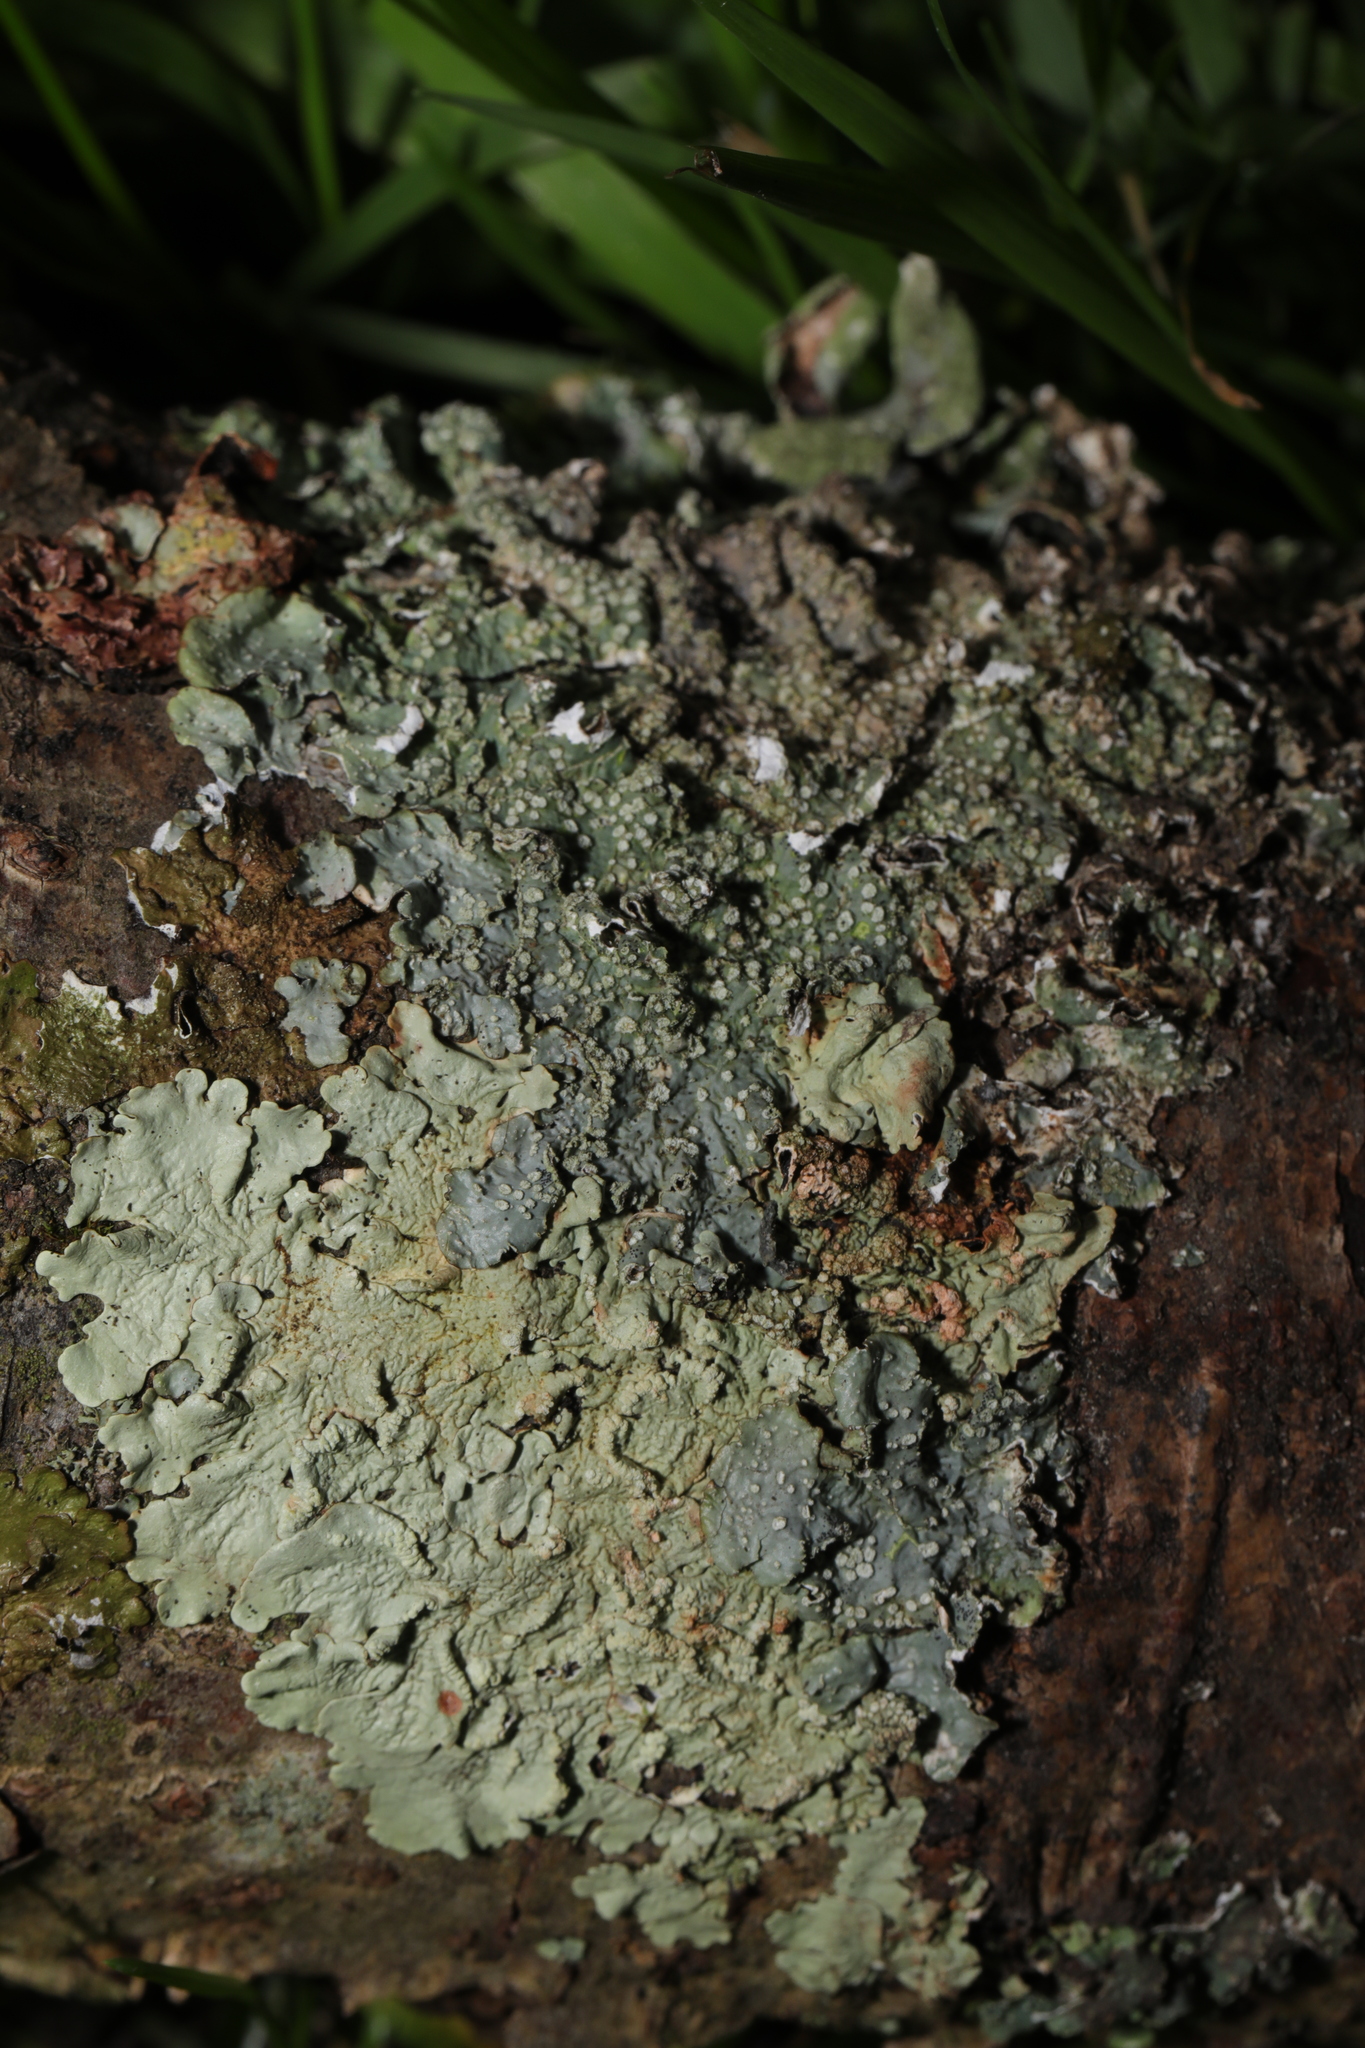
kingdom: Fungi
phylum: Ascomycota
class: Lecanoromycetes
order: Lecanorales
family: Parmeliaceae
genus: Punctelia
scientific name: Punctelia subrudecta
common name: Powdered speckled shield lichen
